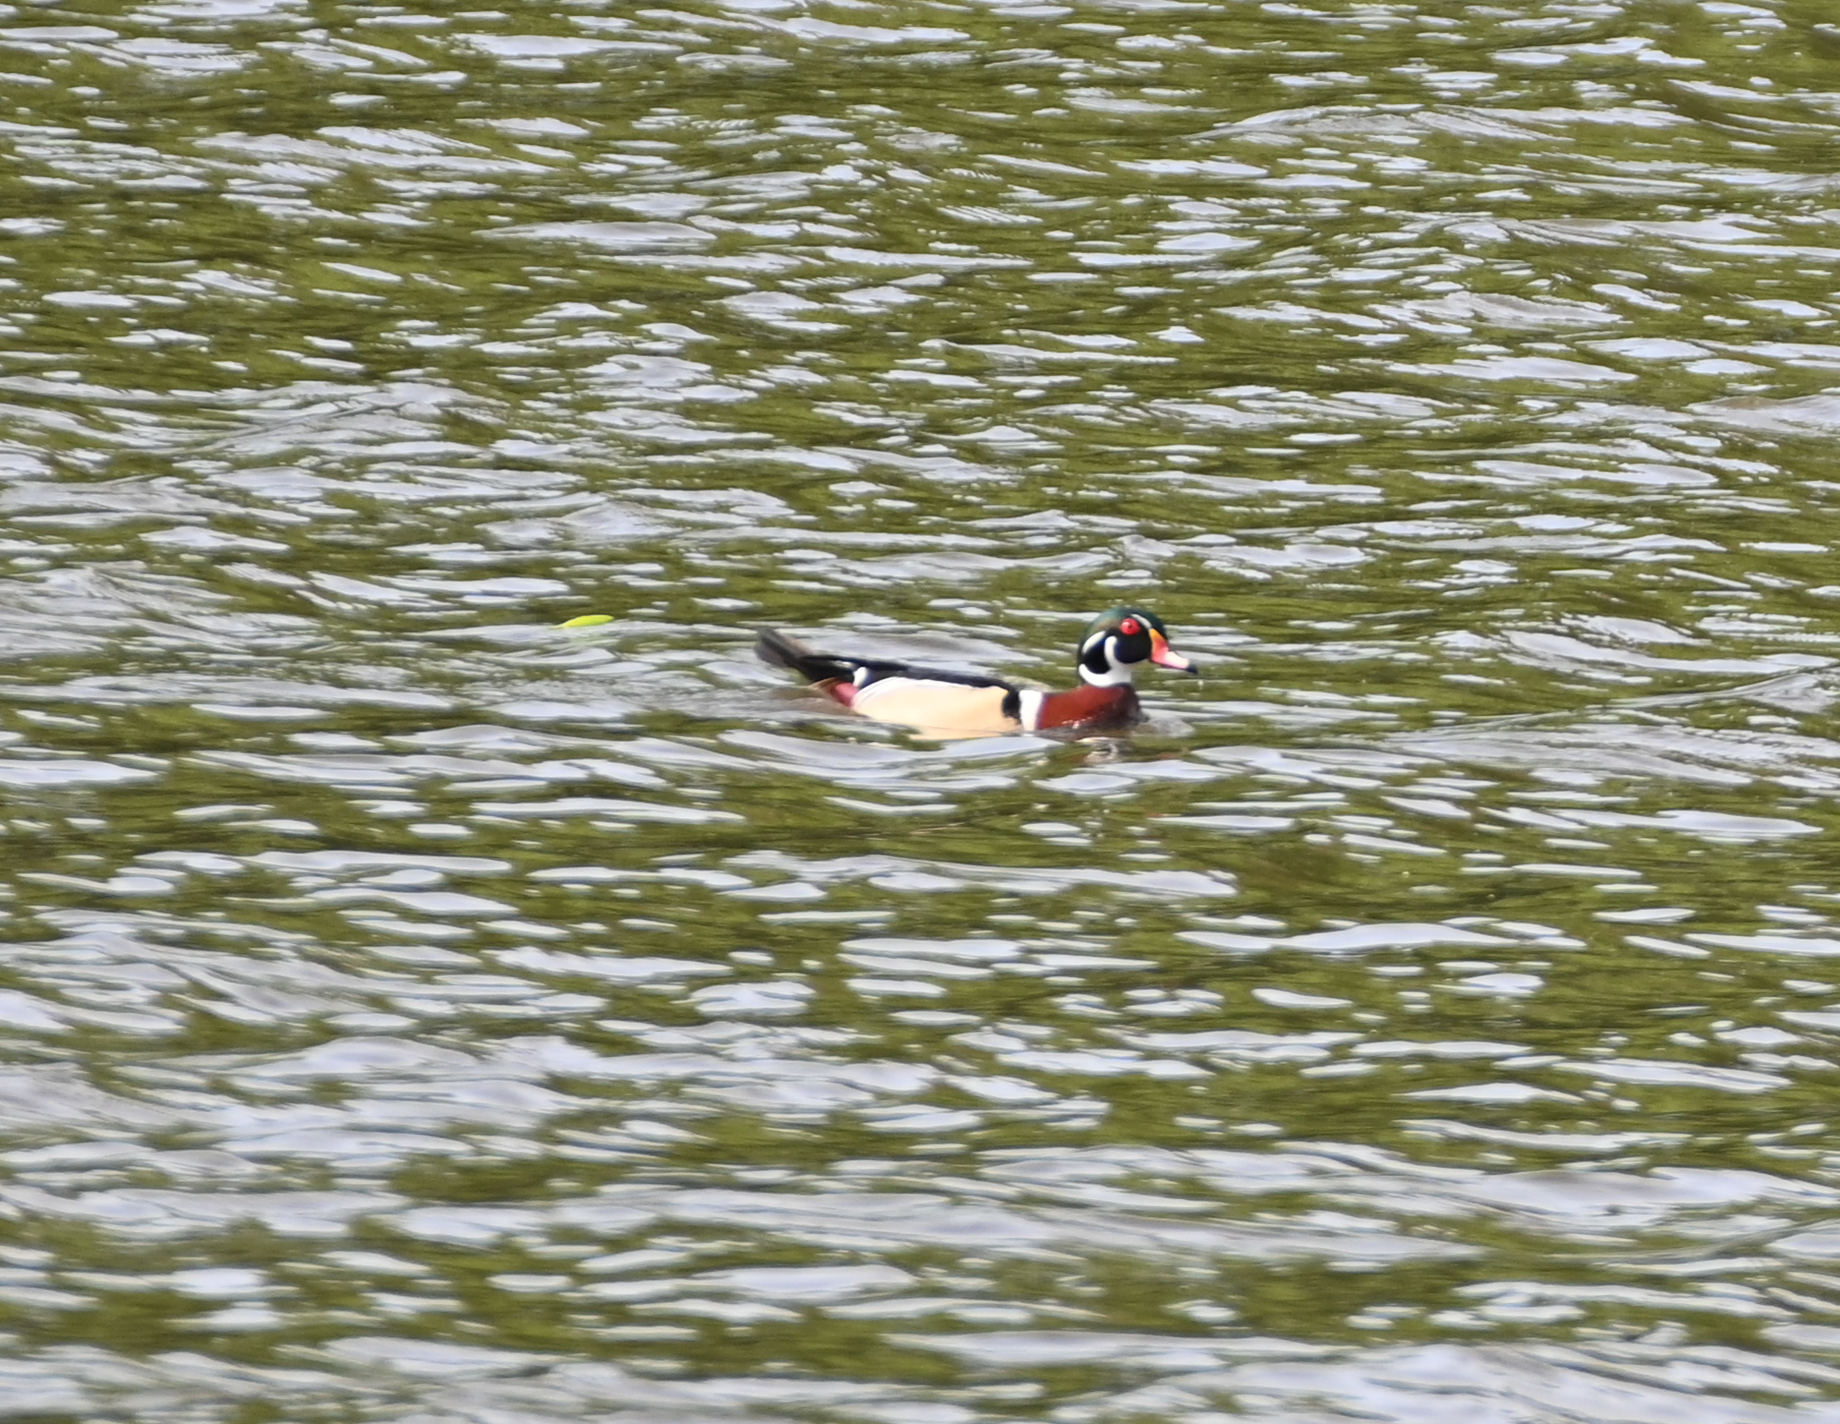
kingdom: Animalia
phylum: Chordata
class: Aves
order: Anseriformes
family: Anatidae
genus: Aix
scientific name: Aix sponsa
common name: Wood duck
